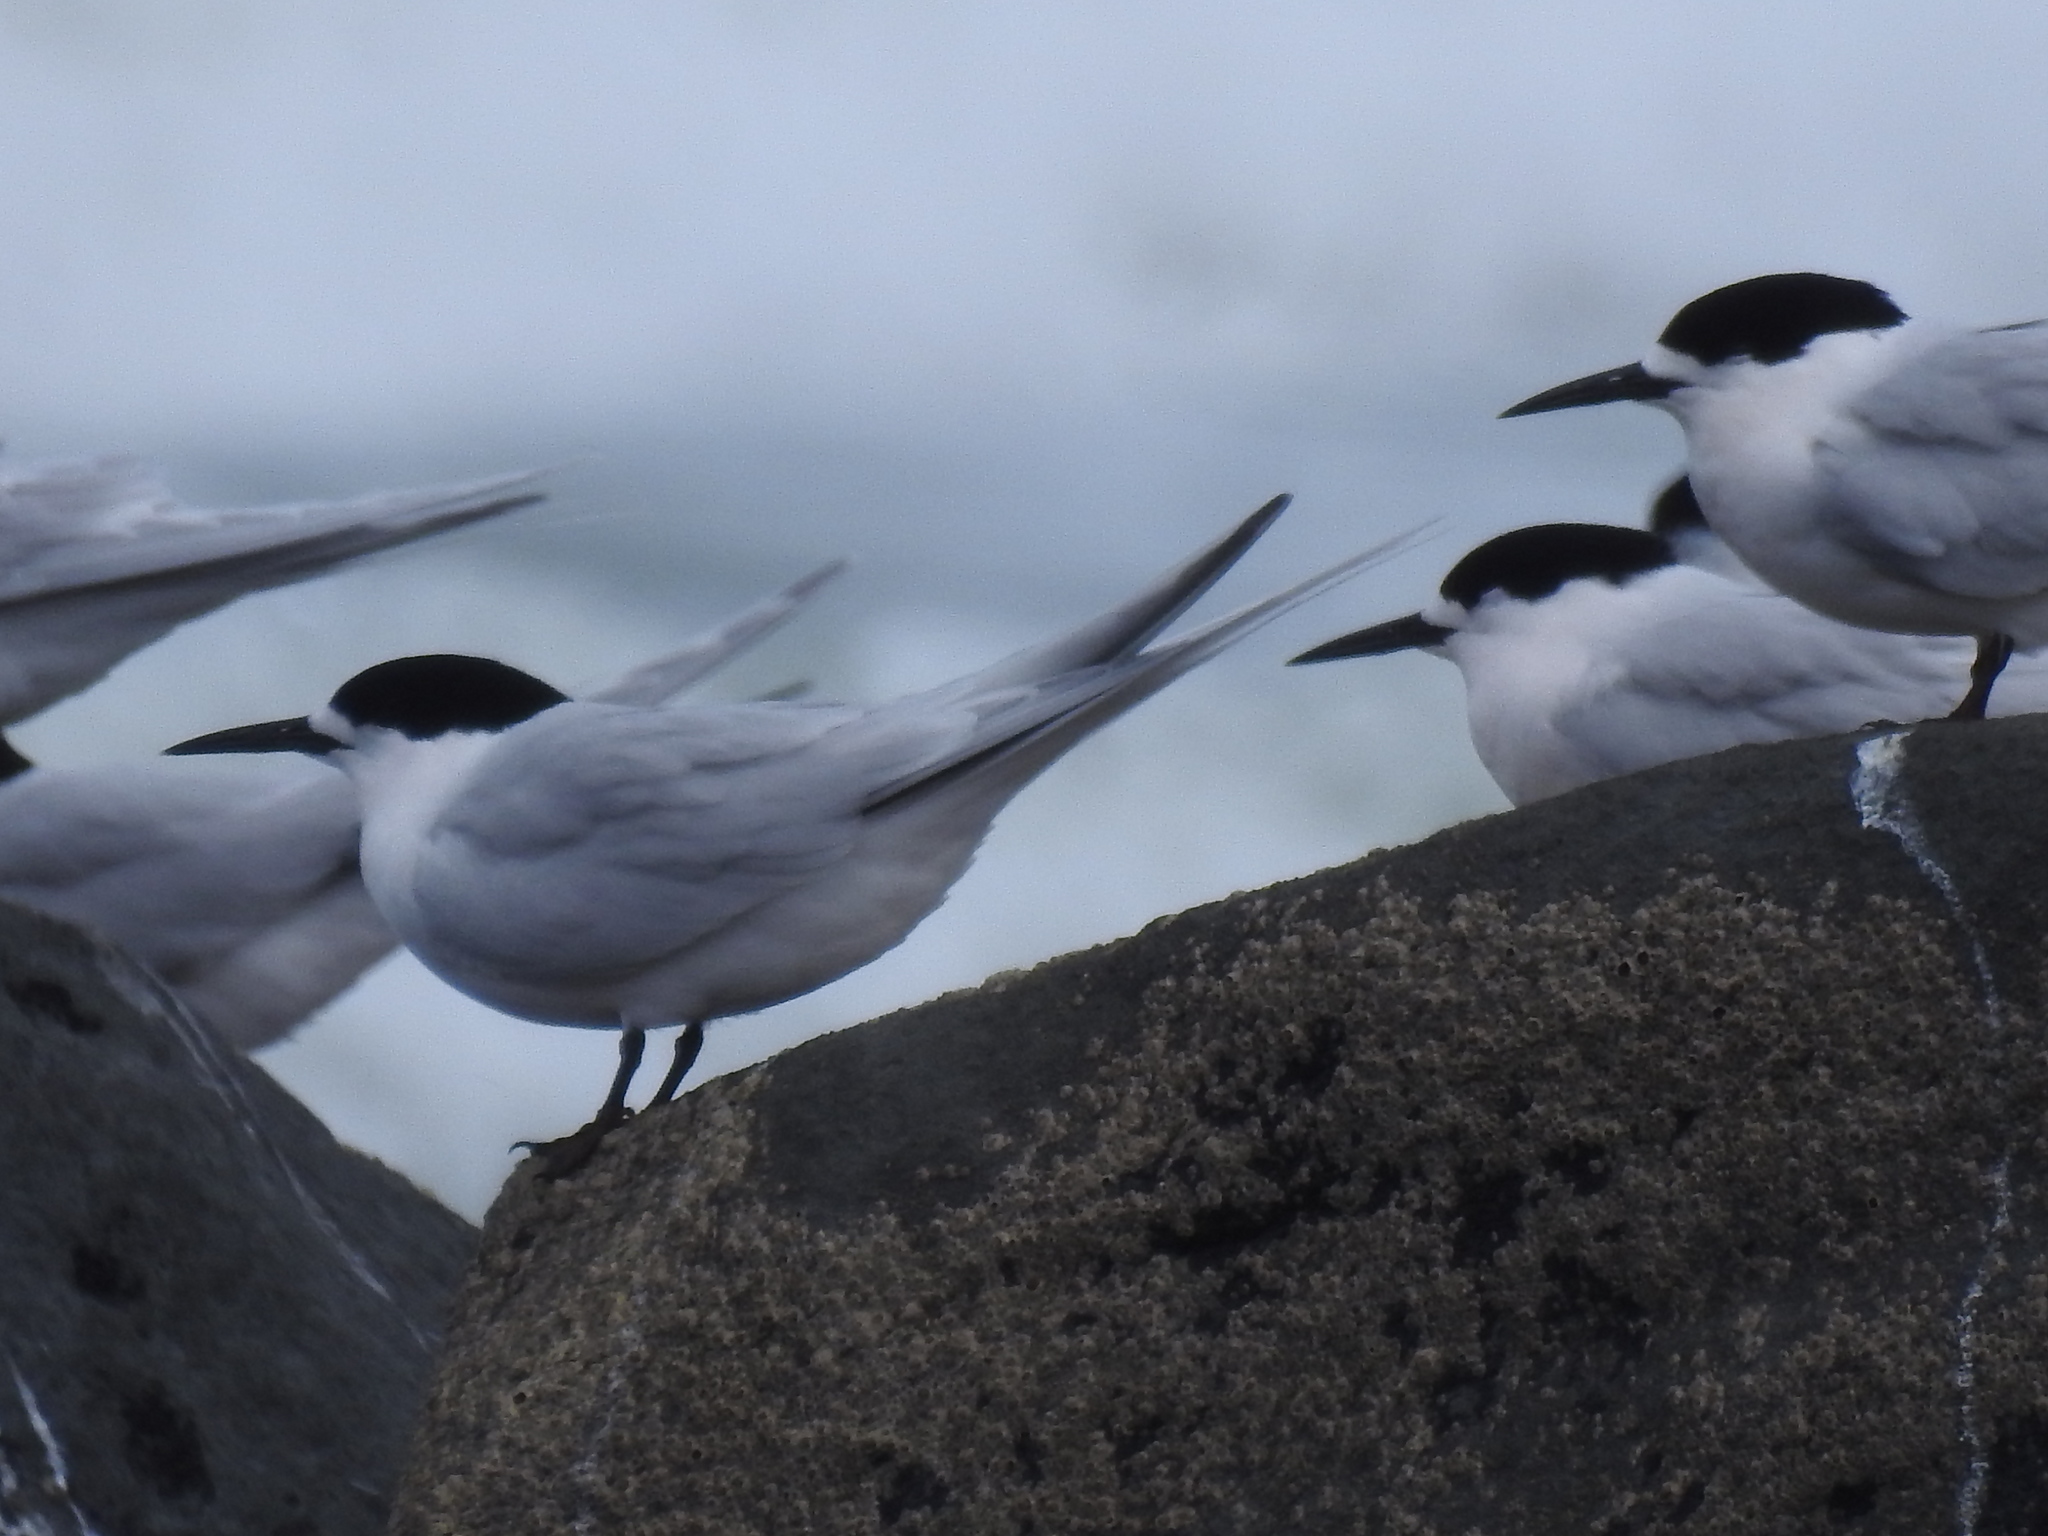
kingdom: Animalia
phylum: Chordata
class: Aves
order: Charadriiformes
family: Laridae
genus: Sterna
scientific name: Sterna striata
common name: White-fronted tern
